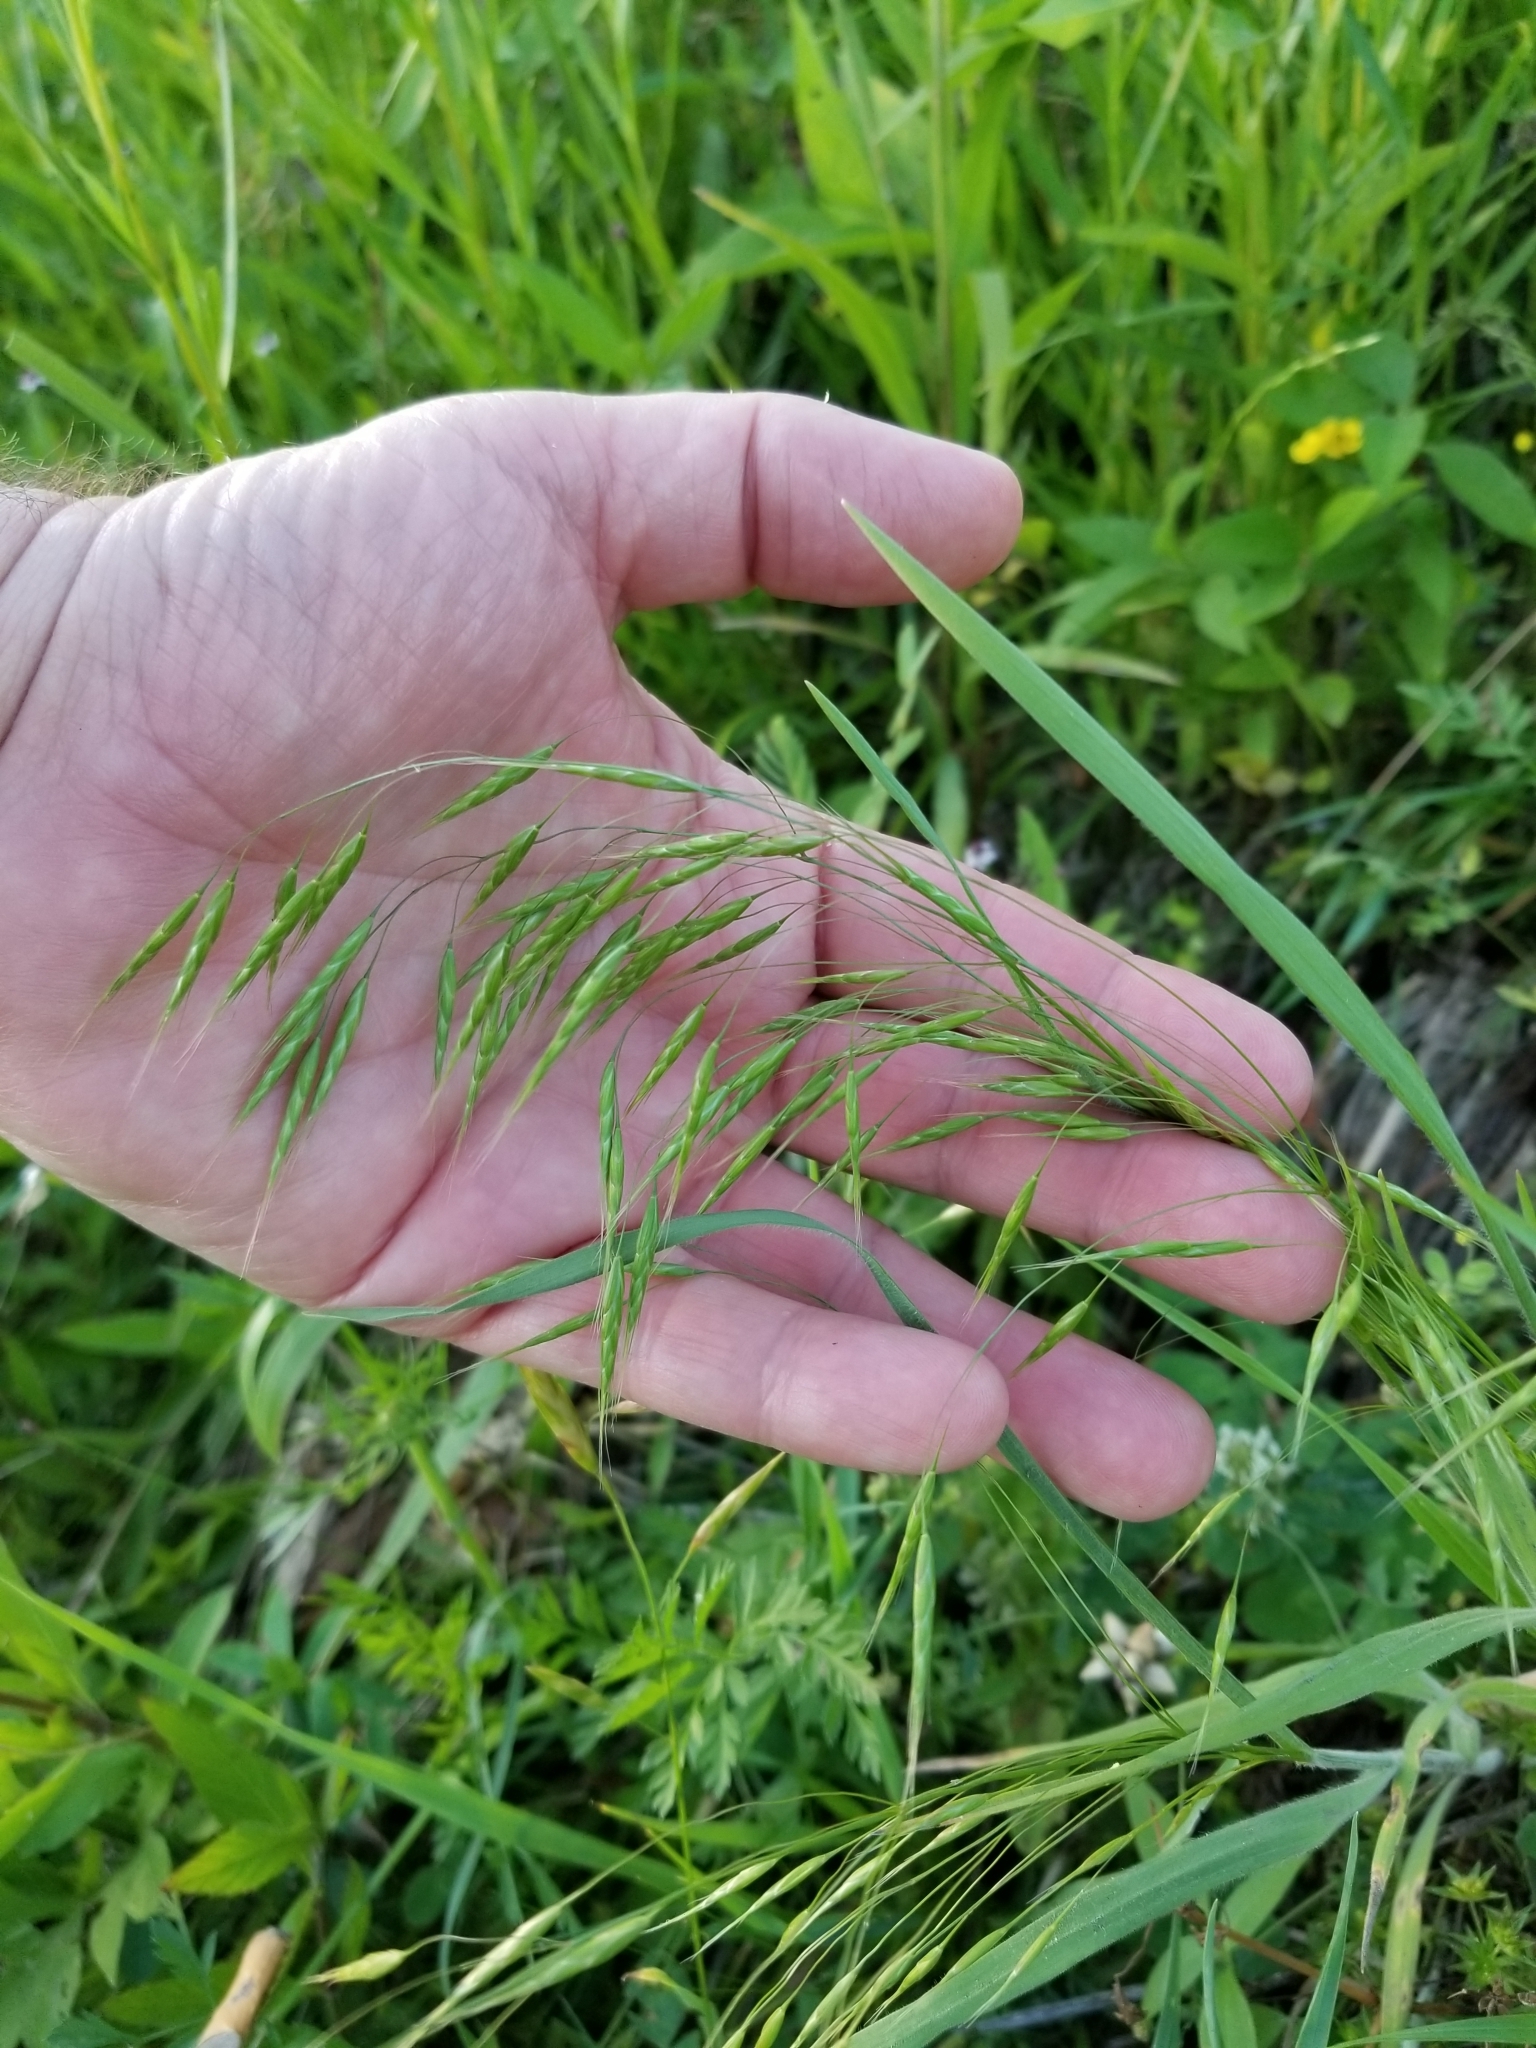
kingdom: Plantae
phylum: Tracheophyta
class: Liliopsida
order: Poales
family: Poaceae
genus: Bromus
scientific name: Bromus japonicus
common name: Japanese brome
